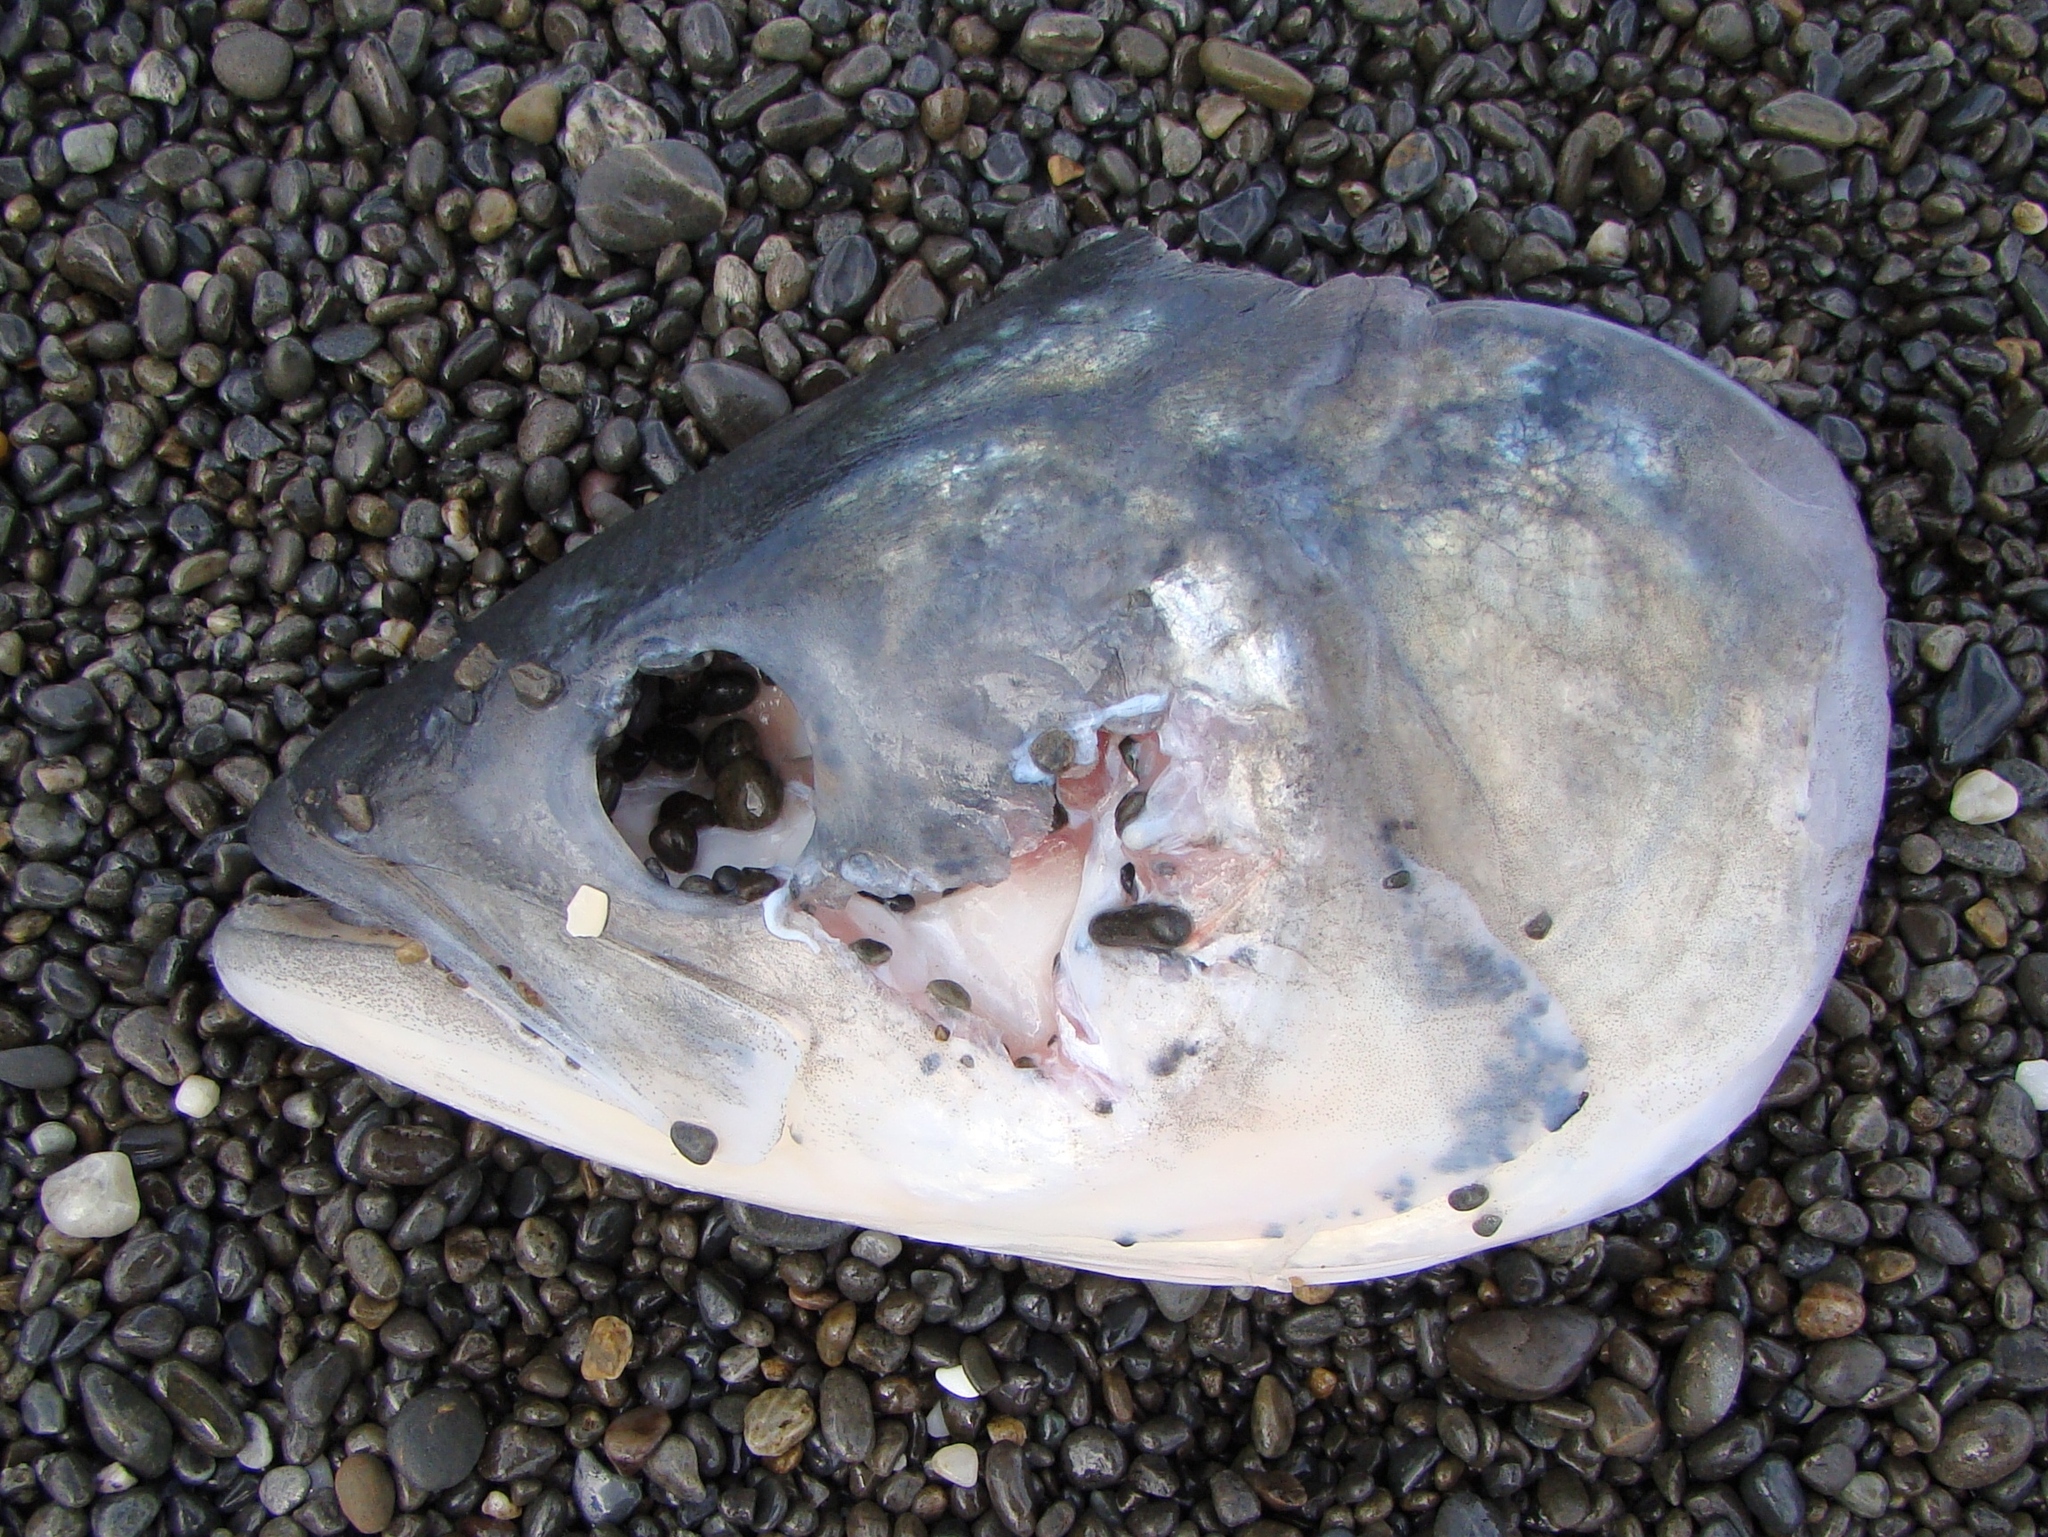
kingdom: Animalia
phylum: Chordata
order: Perciformes
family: Arripidae
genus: Arripis
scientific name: Arripis trutta
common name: Kahawai
